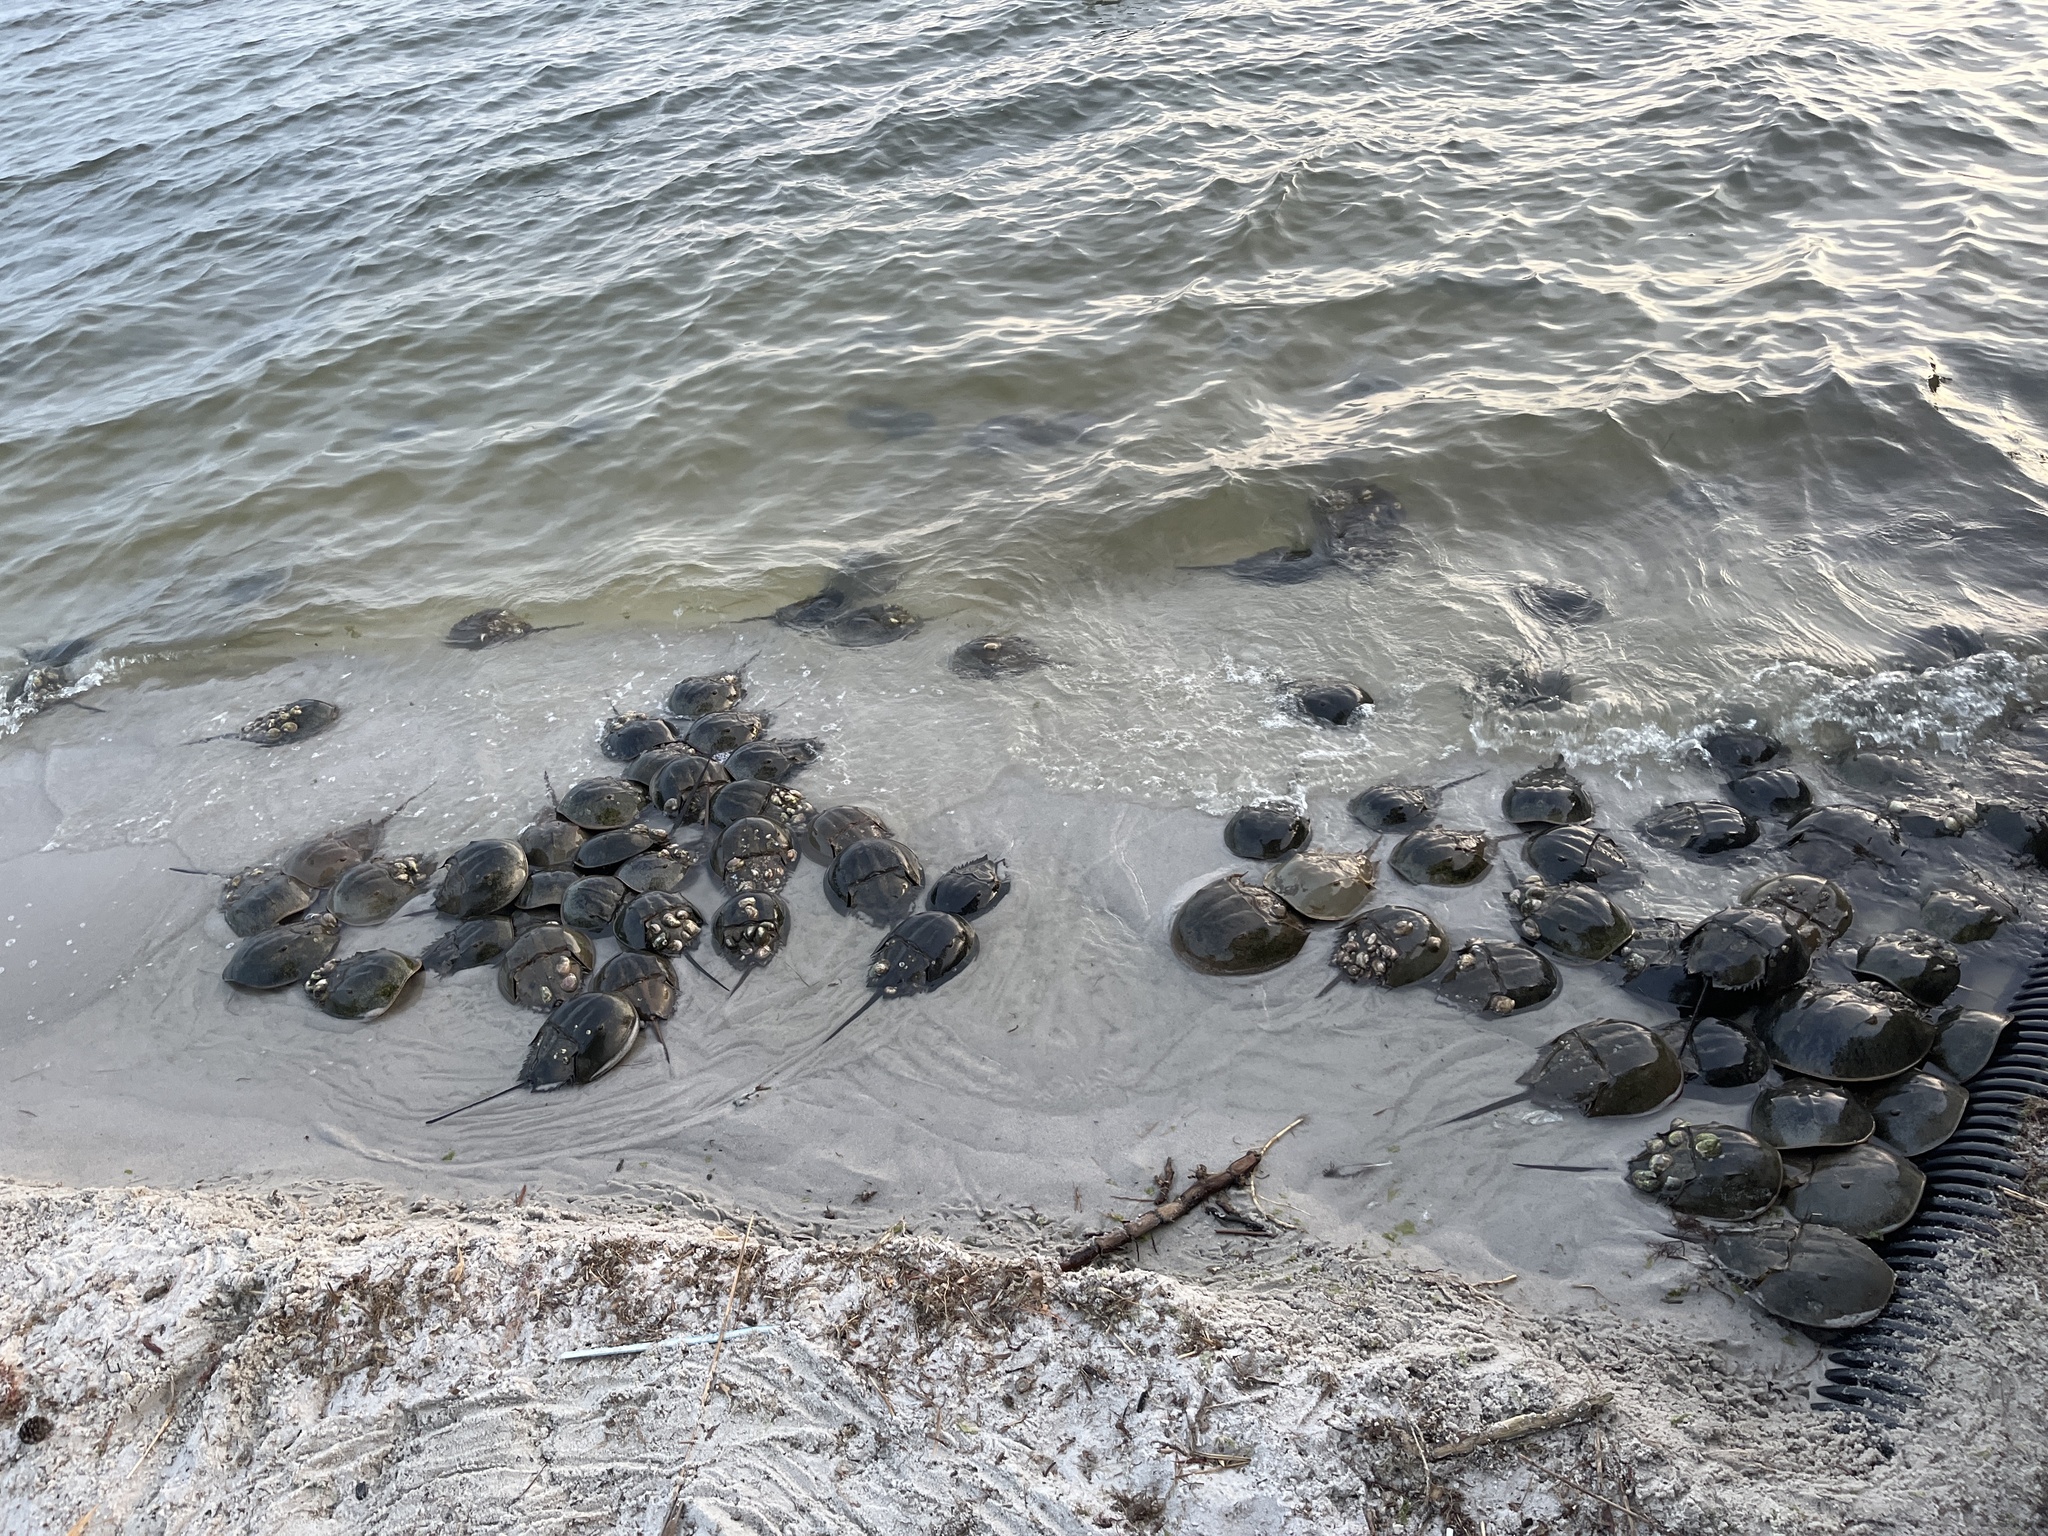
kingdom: Animalia
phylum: Arthropoda
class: Merostomata
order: Xiphosurida
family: Limulidae
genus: Limulus
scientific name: Limulus polyphemus
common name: Horseshoe crab
